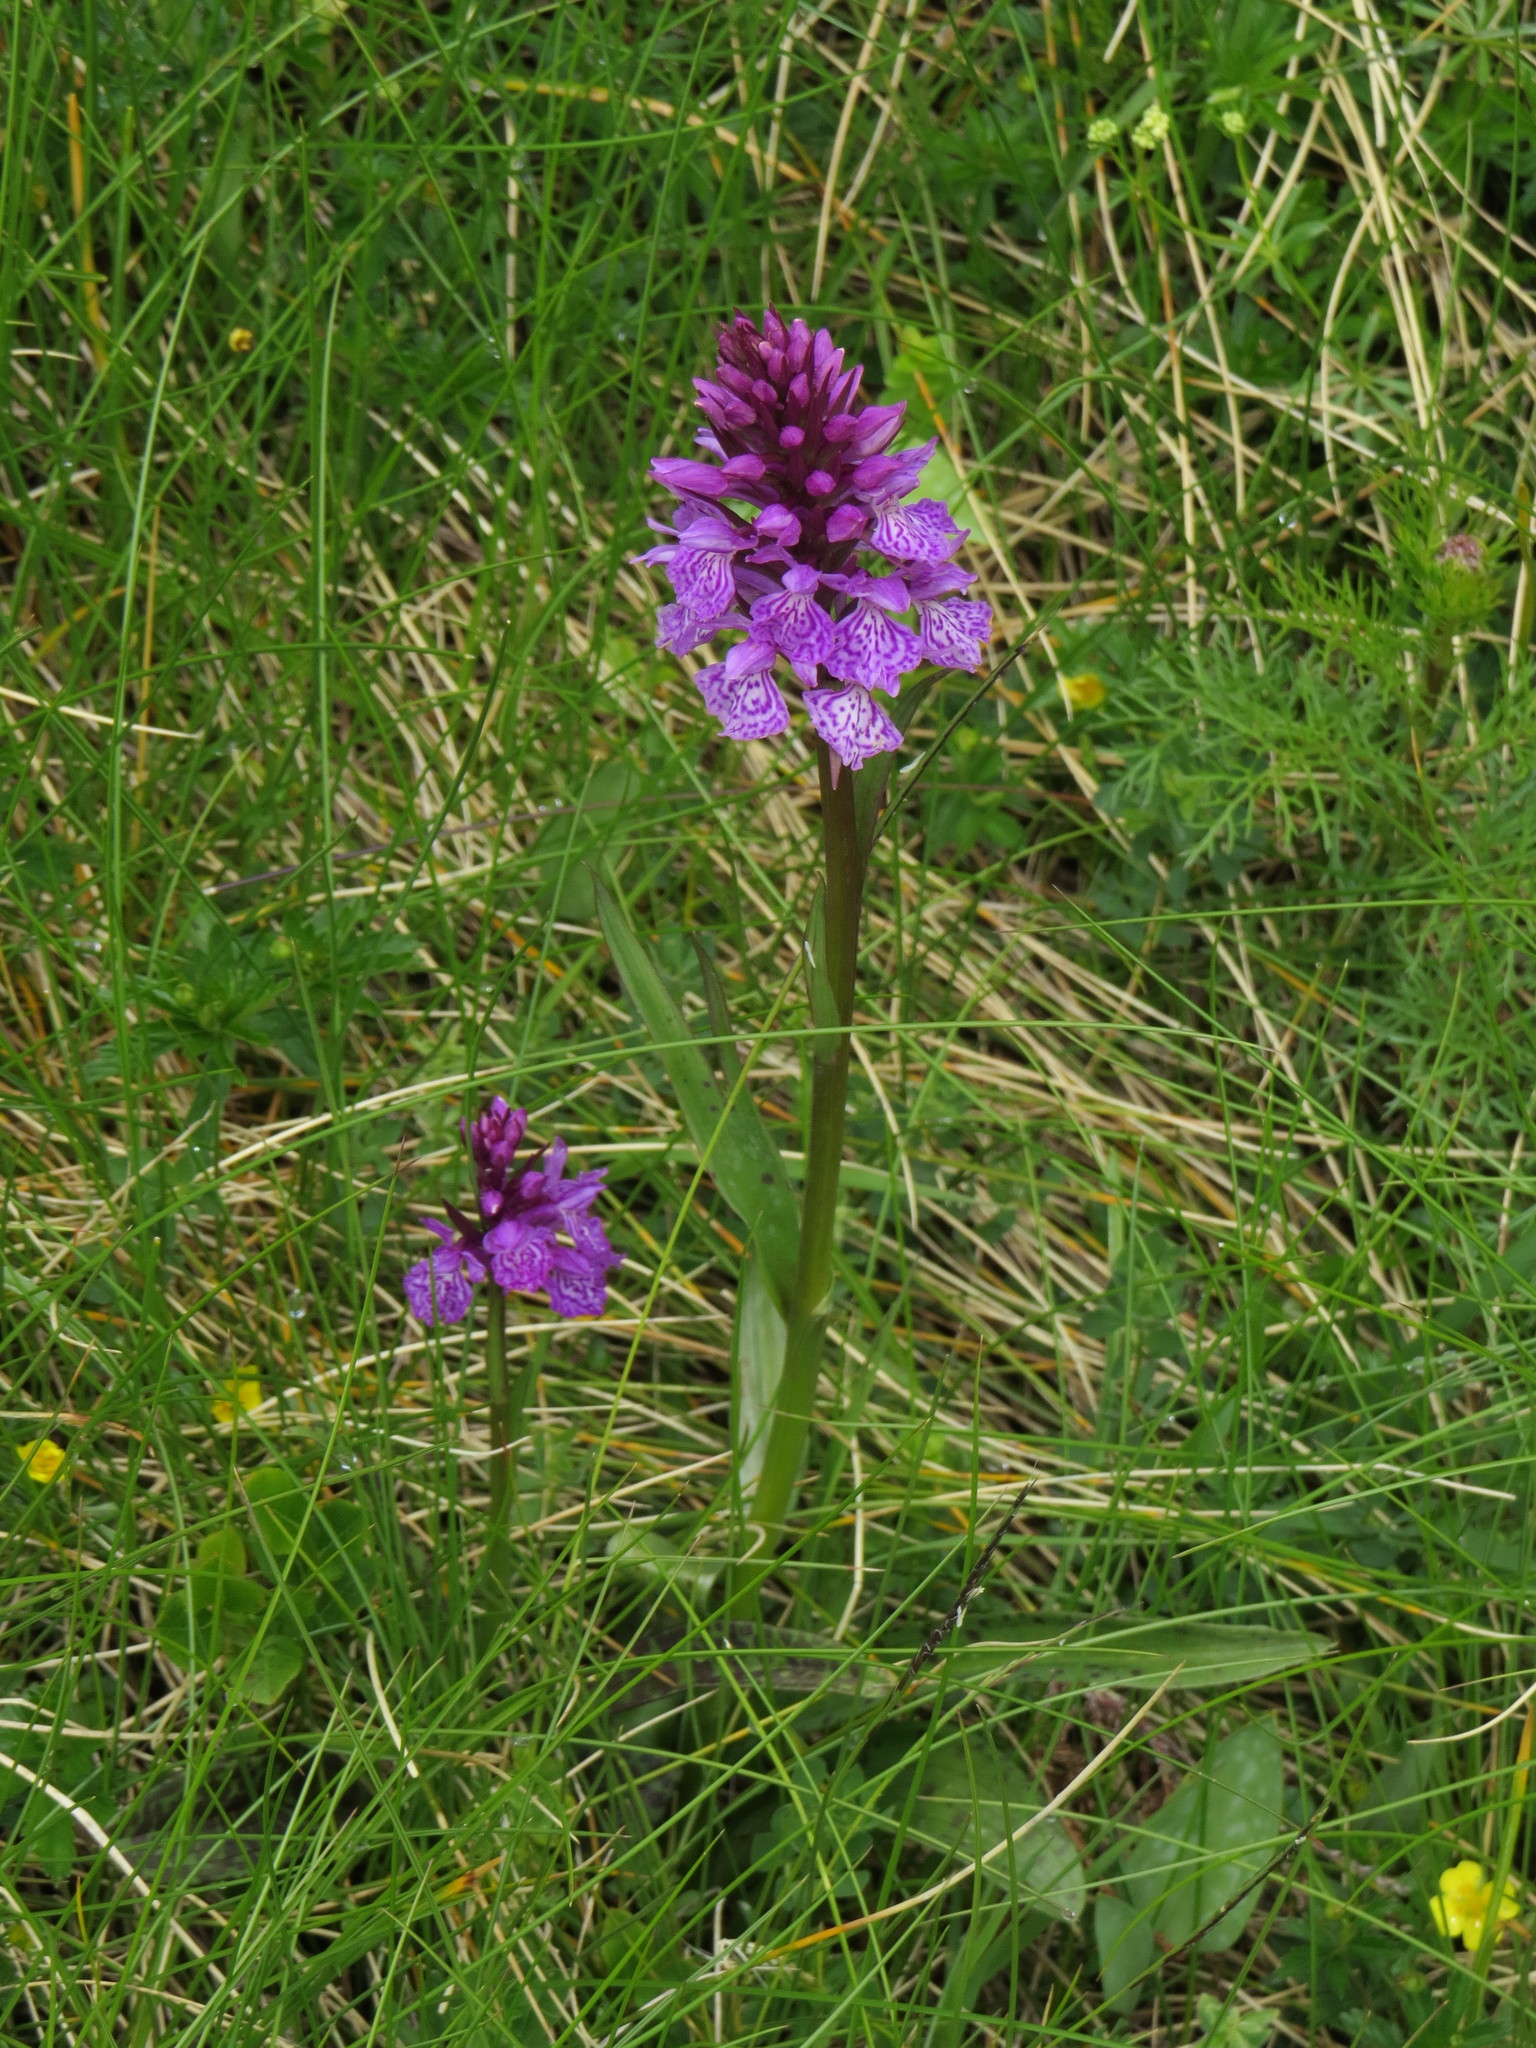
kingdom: Plantae
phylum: Tracheophyta
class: Liliopsida
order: Asparagales
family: Orchidaceae
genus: Dactylorhiza
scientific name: Dactylorhiza maculata
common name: Heath spotted-orchid
